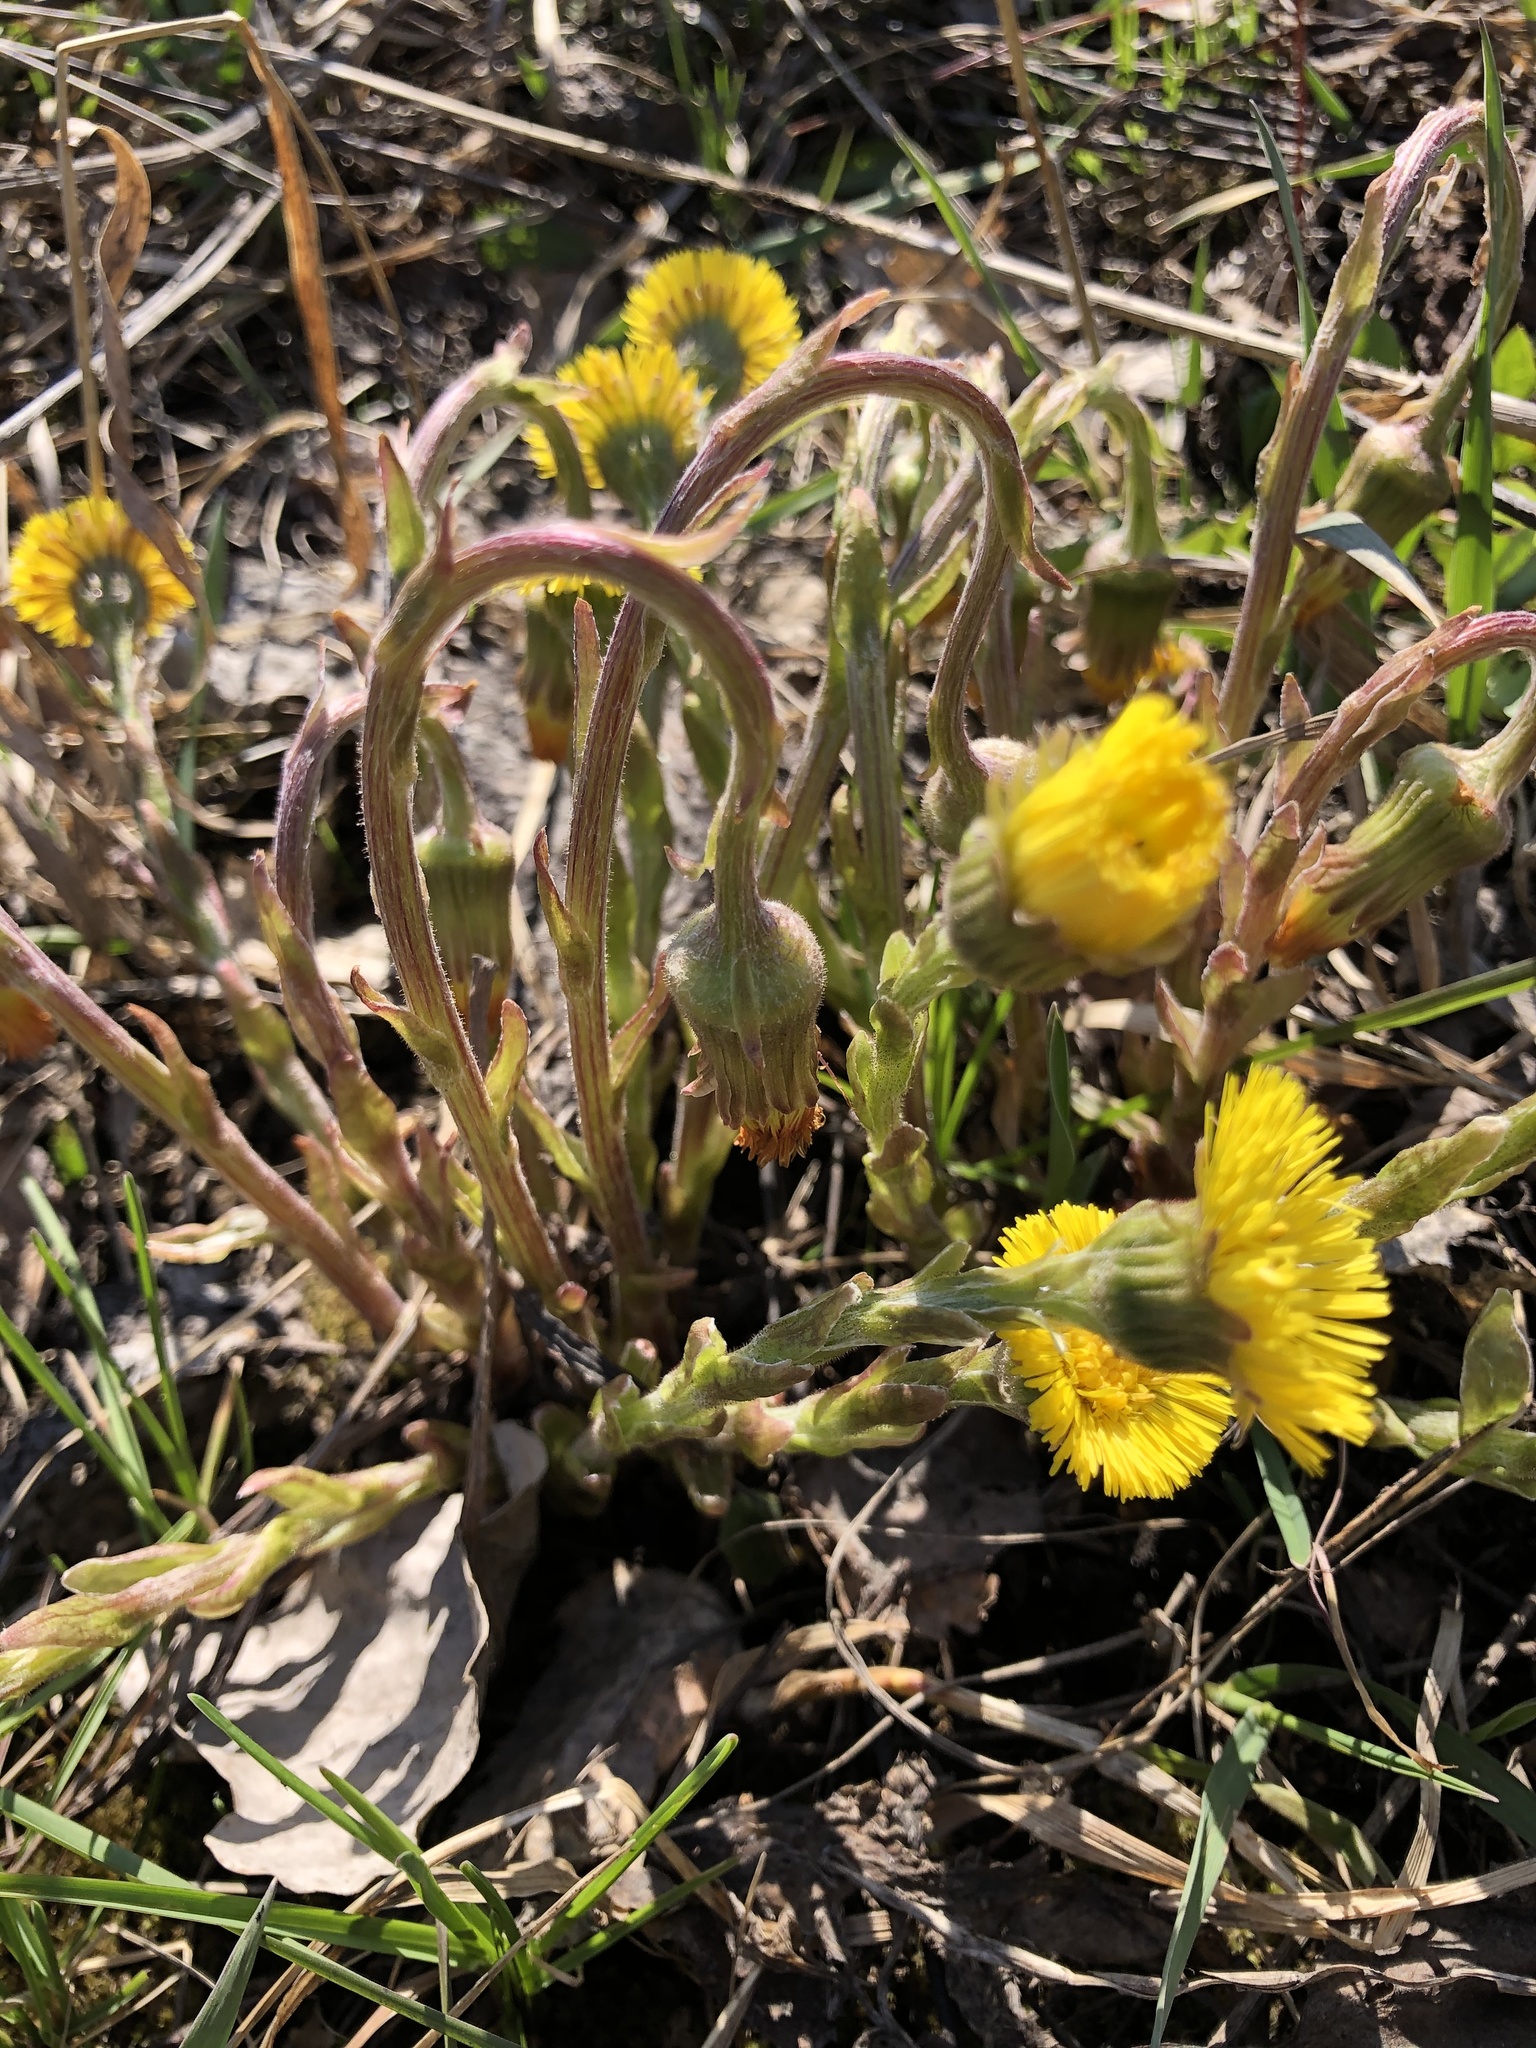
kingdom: Plantae
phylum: Tracheophyta
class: Magnoliopsida
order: Asterales
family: Asteraceae
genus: Tussilago
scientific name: Tussilago farfara
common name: Coltsfoot
